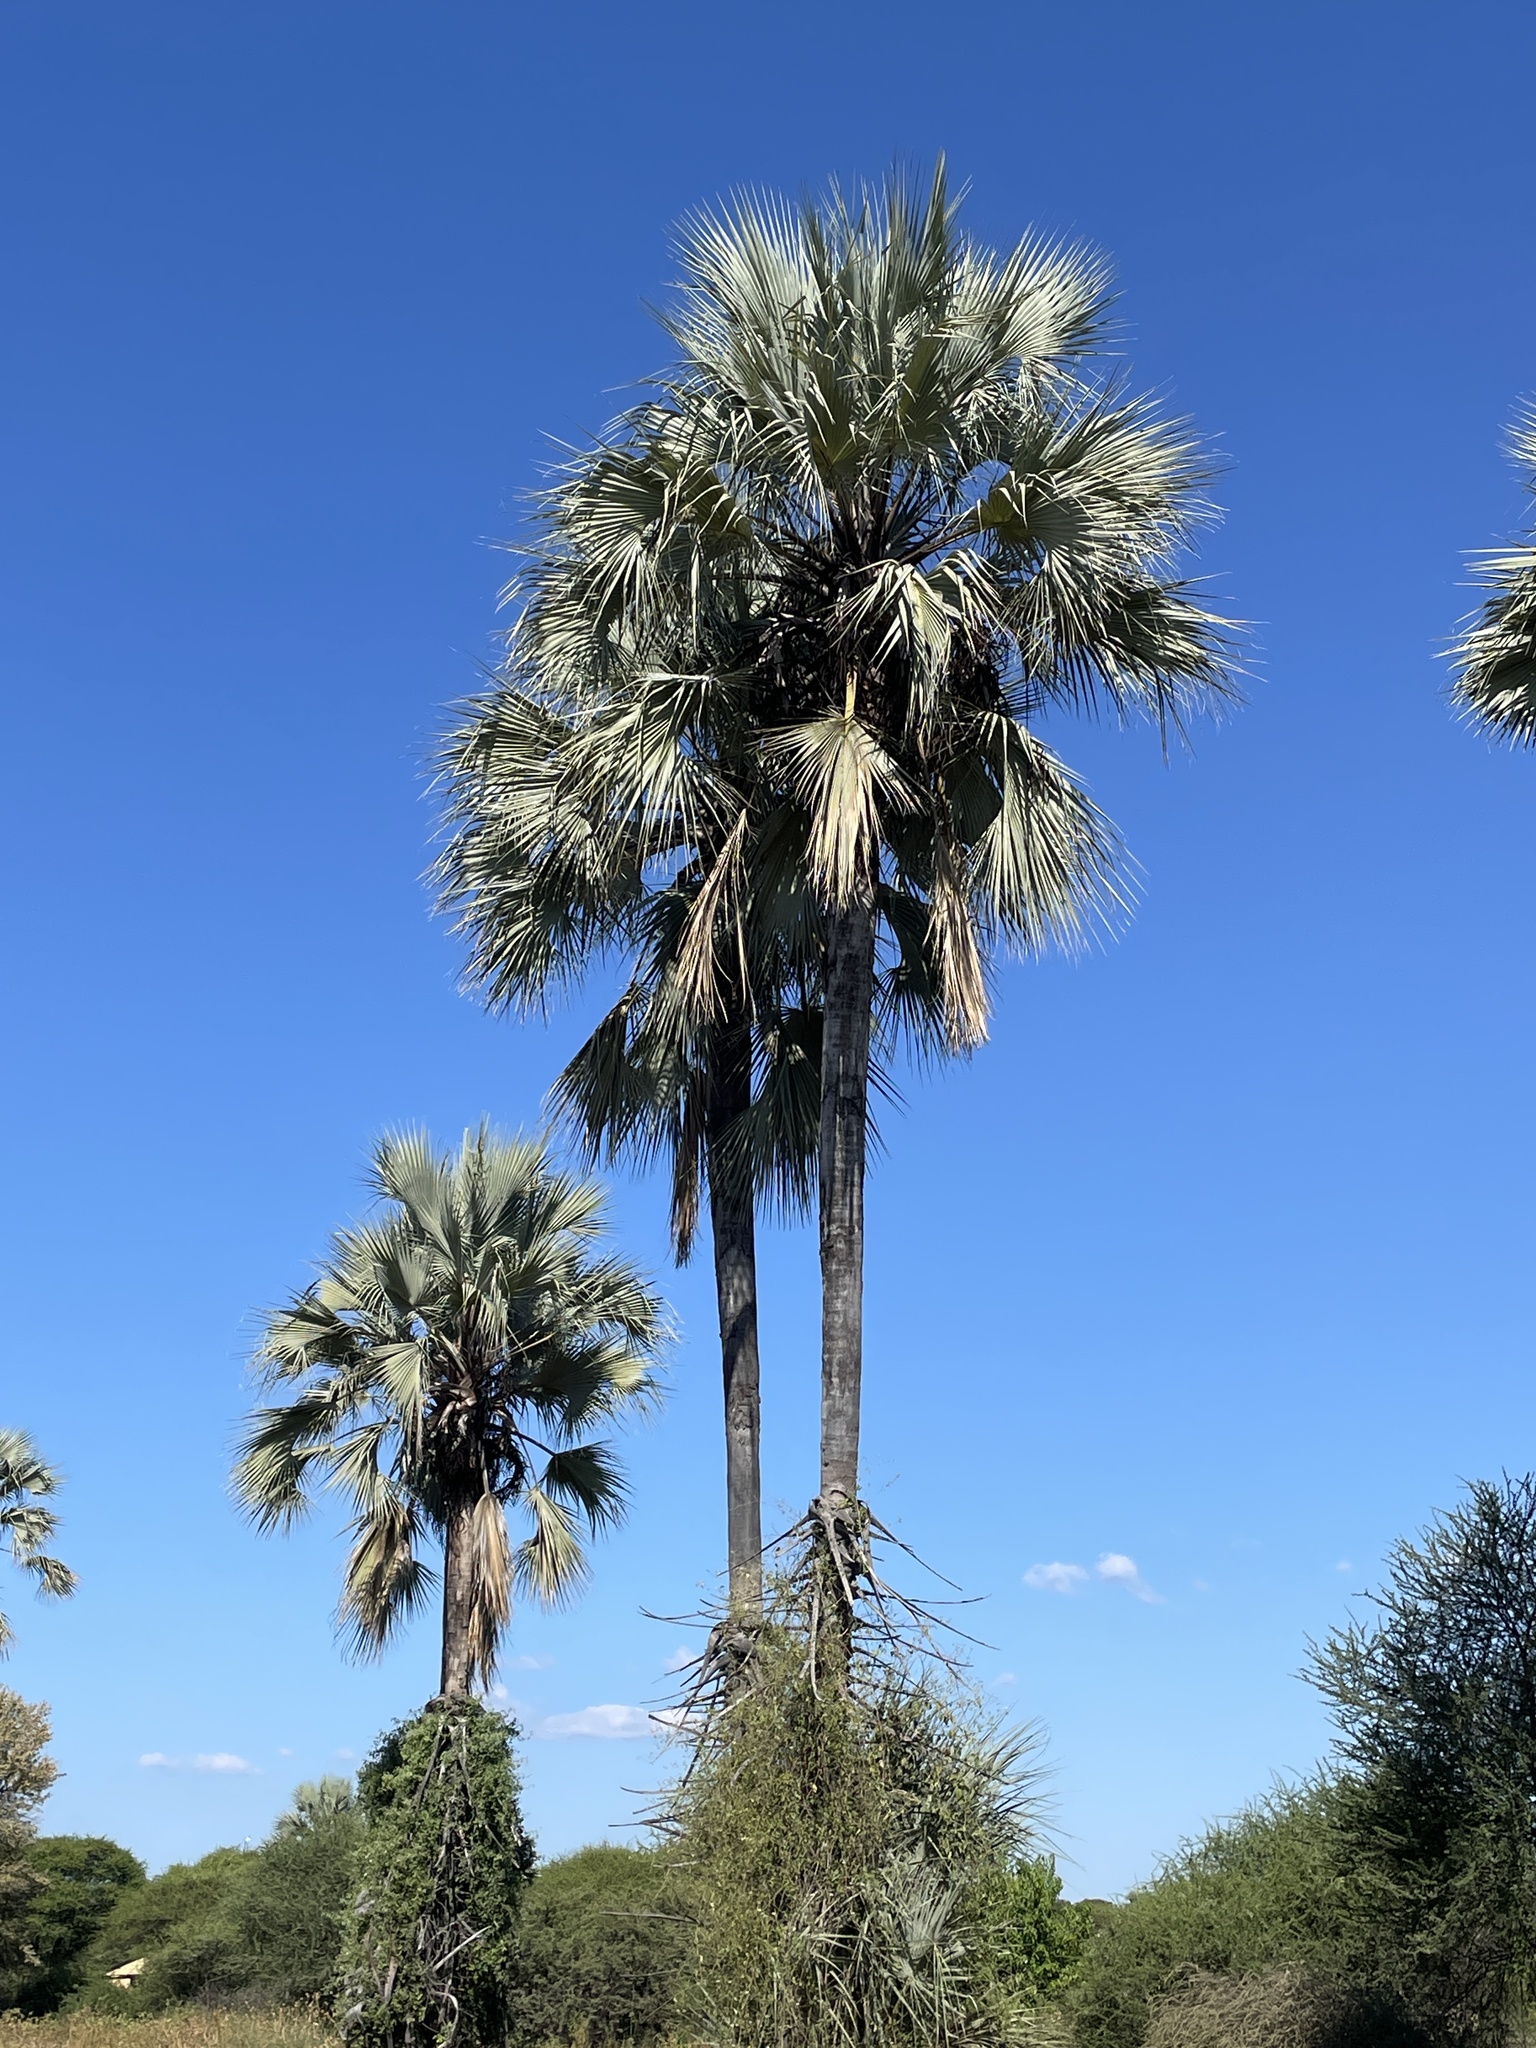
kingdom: Plantae
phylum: Tracheophyta
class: Liliopsida
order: Arecales
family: Arecaceae
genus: Hyphaene
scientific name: Hyphaene petersiana
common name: African ivory nut palm
